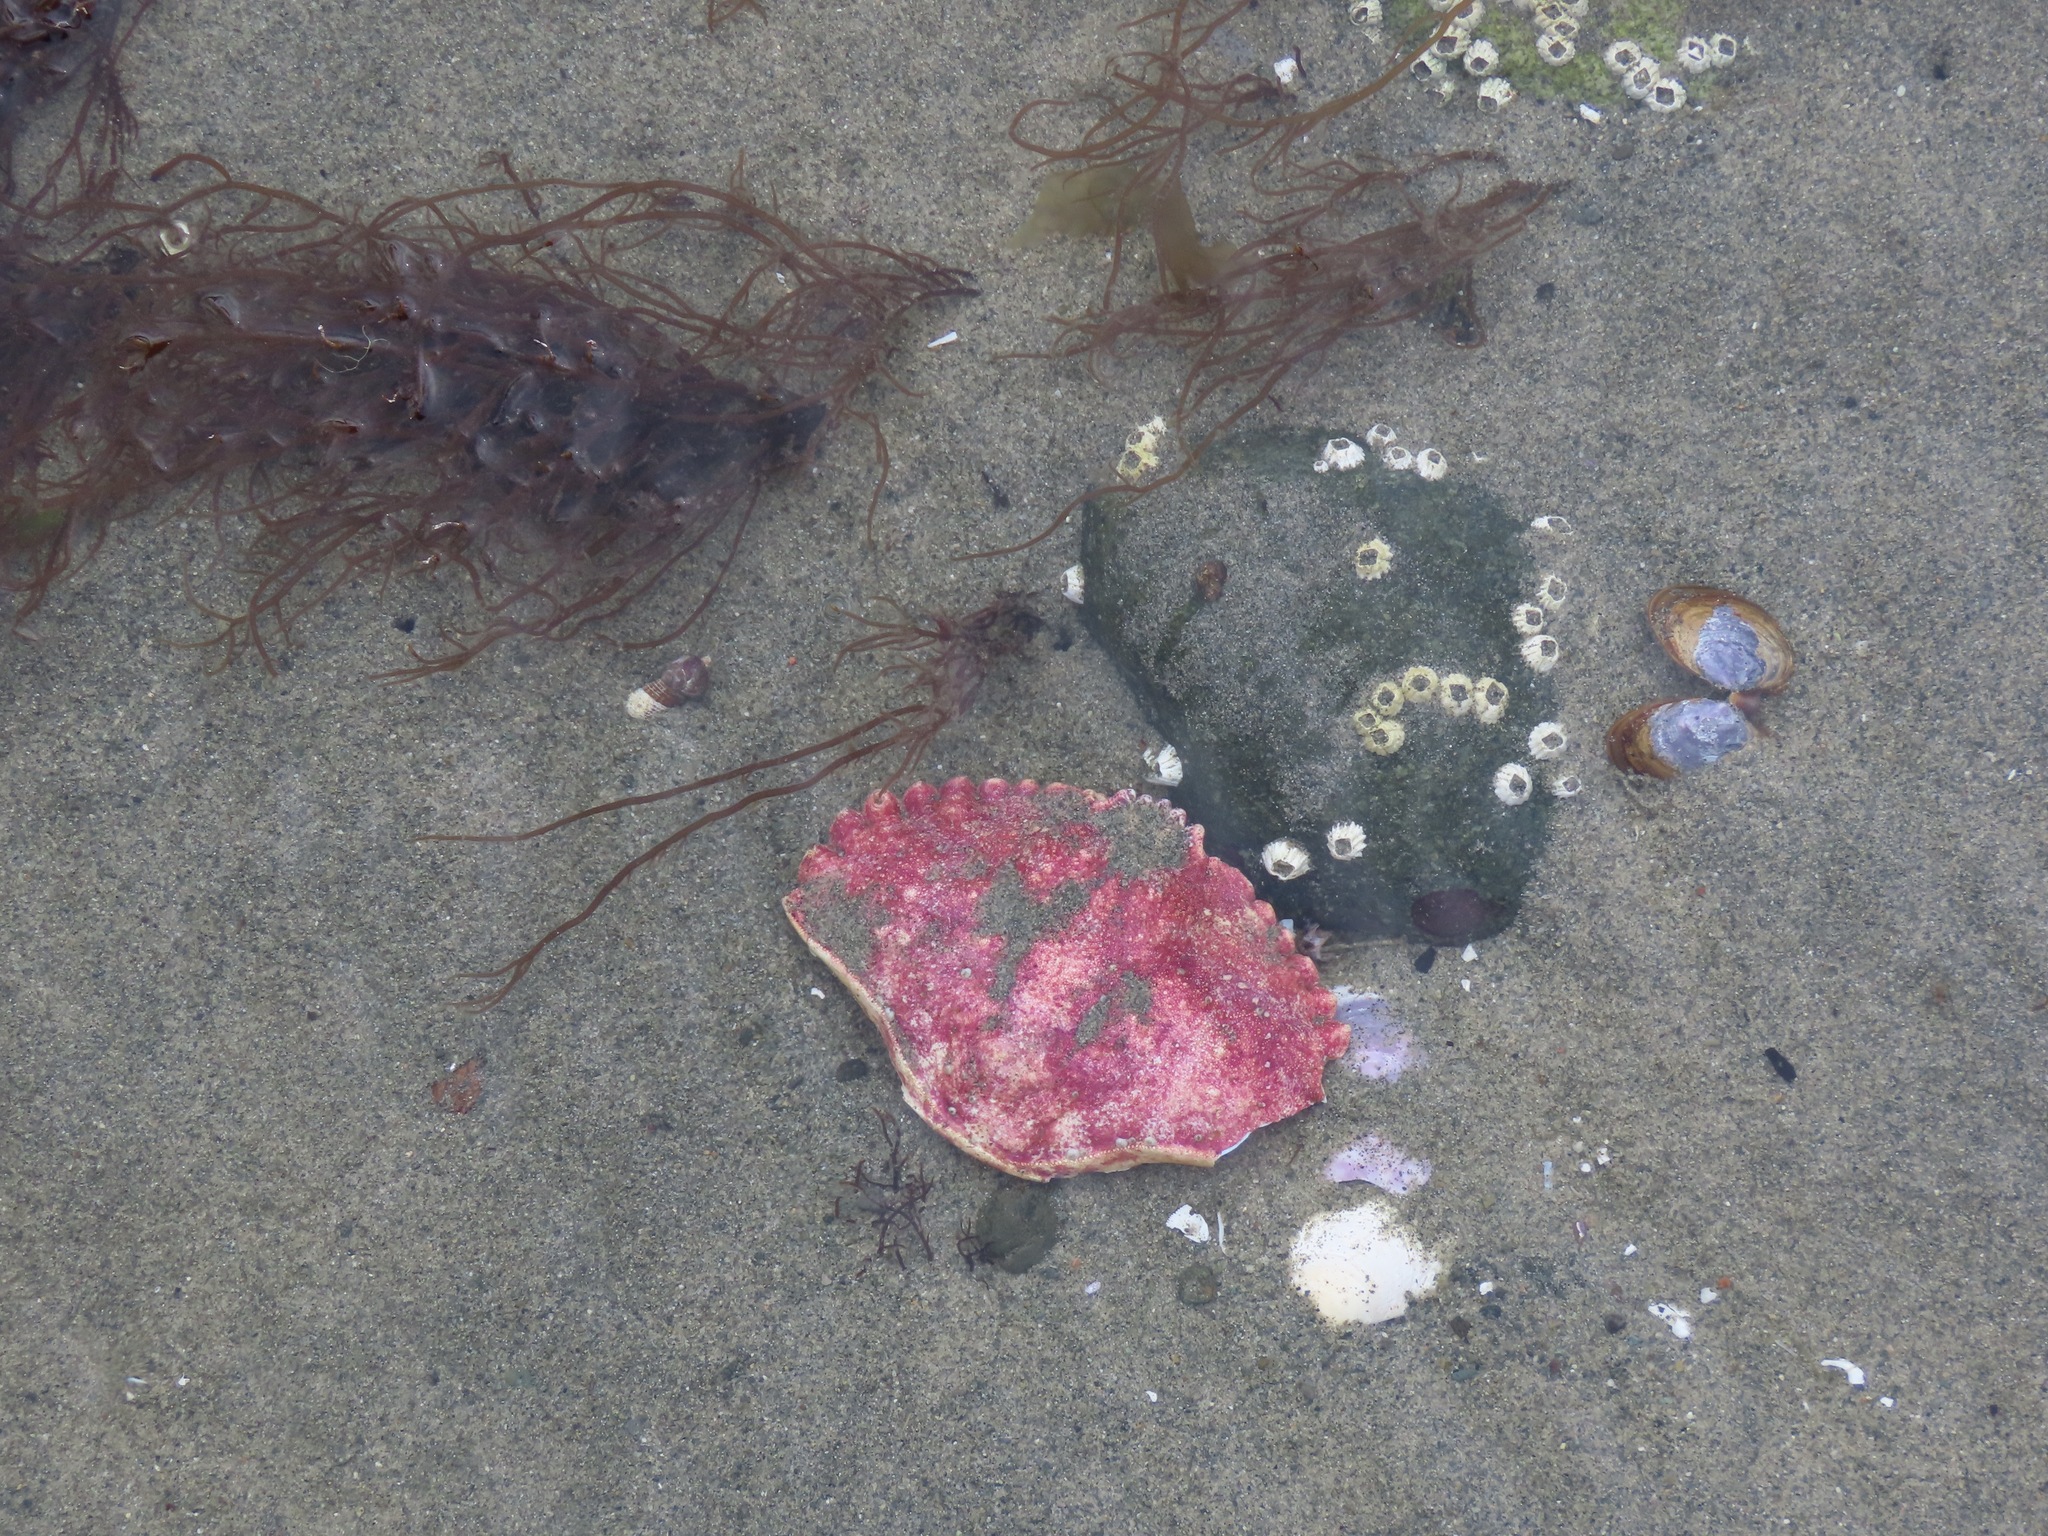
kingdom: Animalia
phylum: Arthropoda
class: Malacostraca
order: Decapoda
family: Cancridae
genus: Cancer
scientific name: Cancer productus
